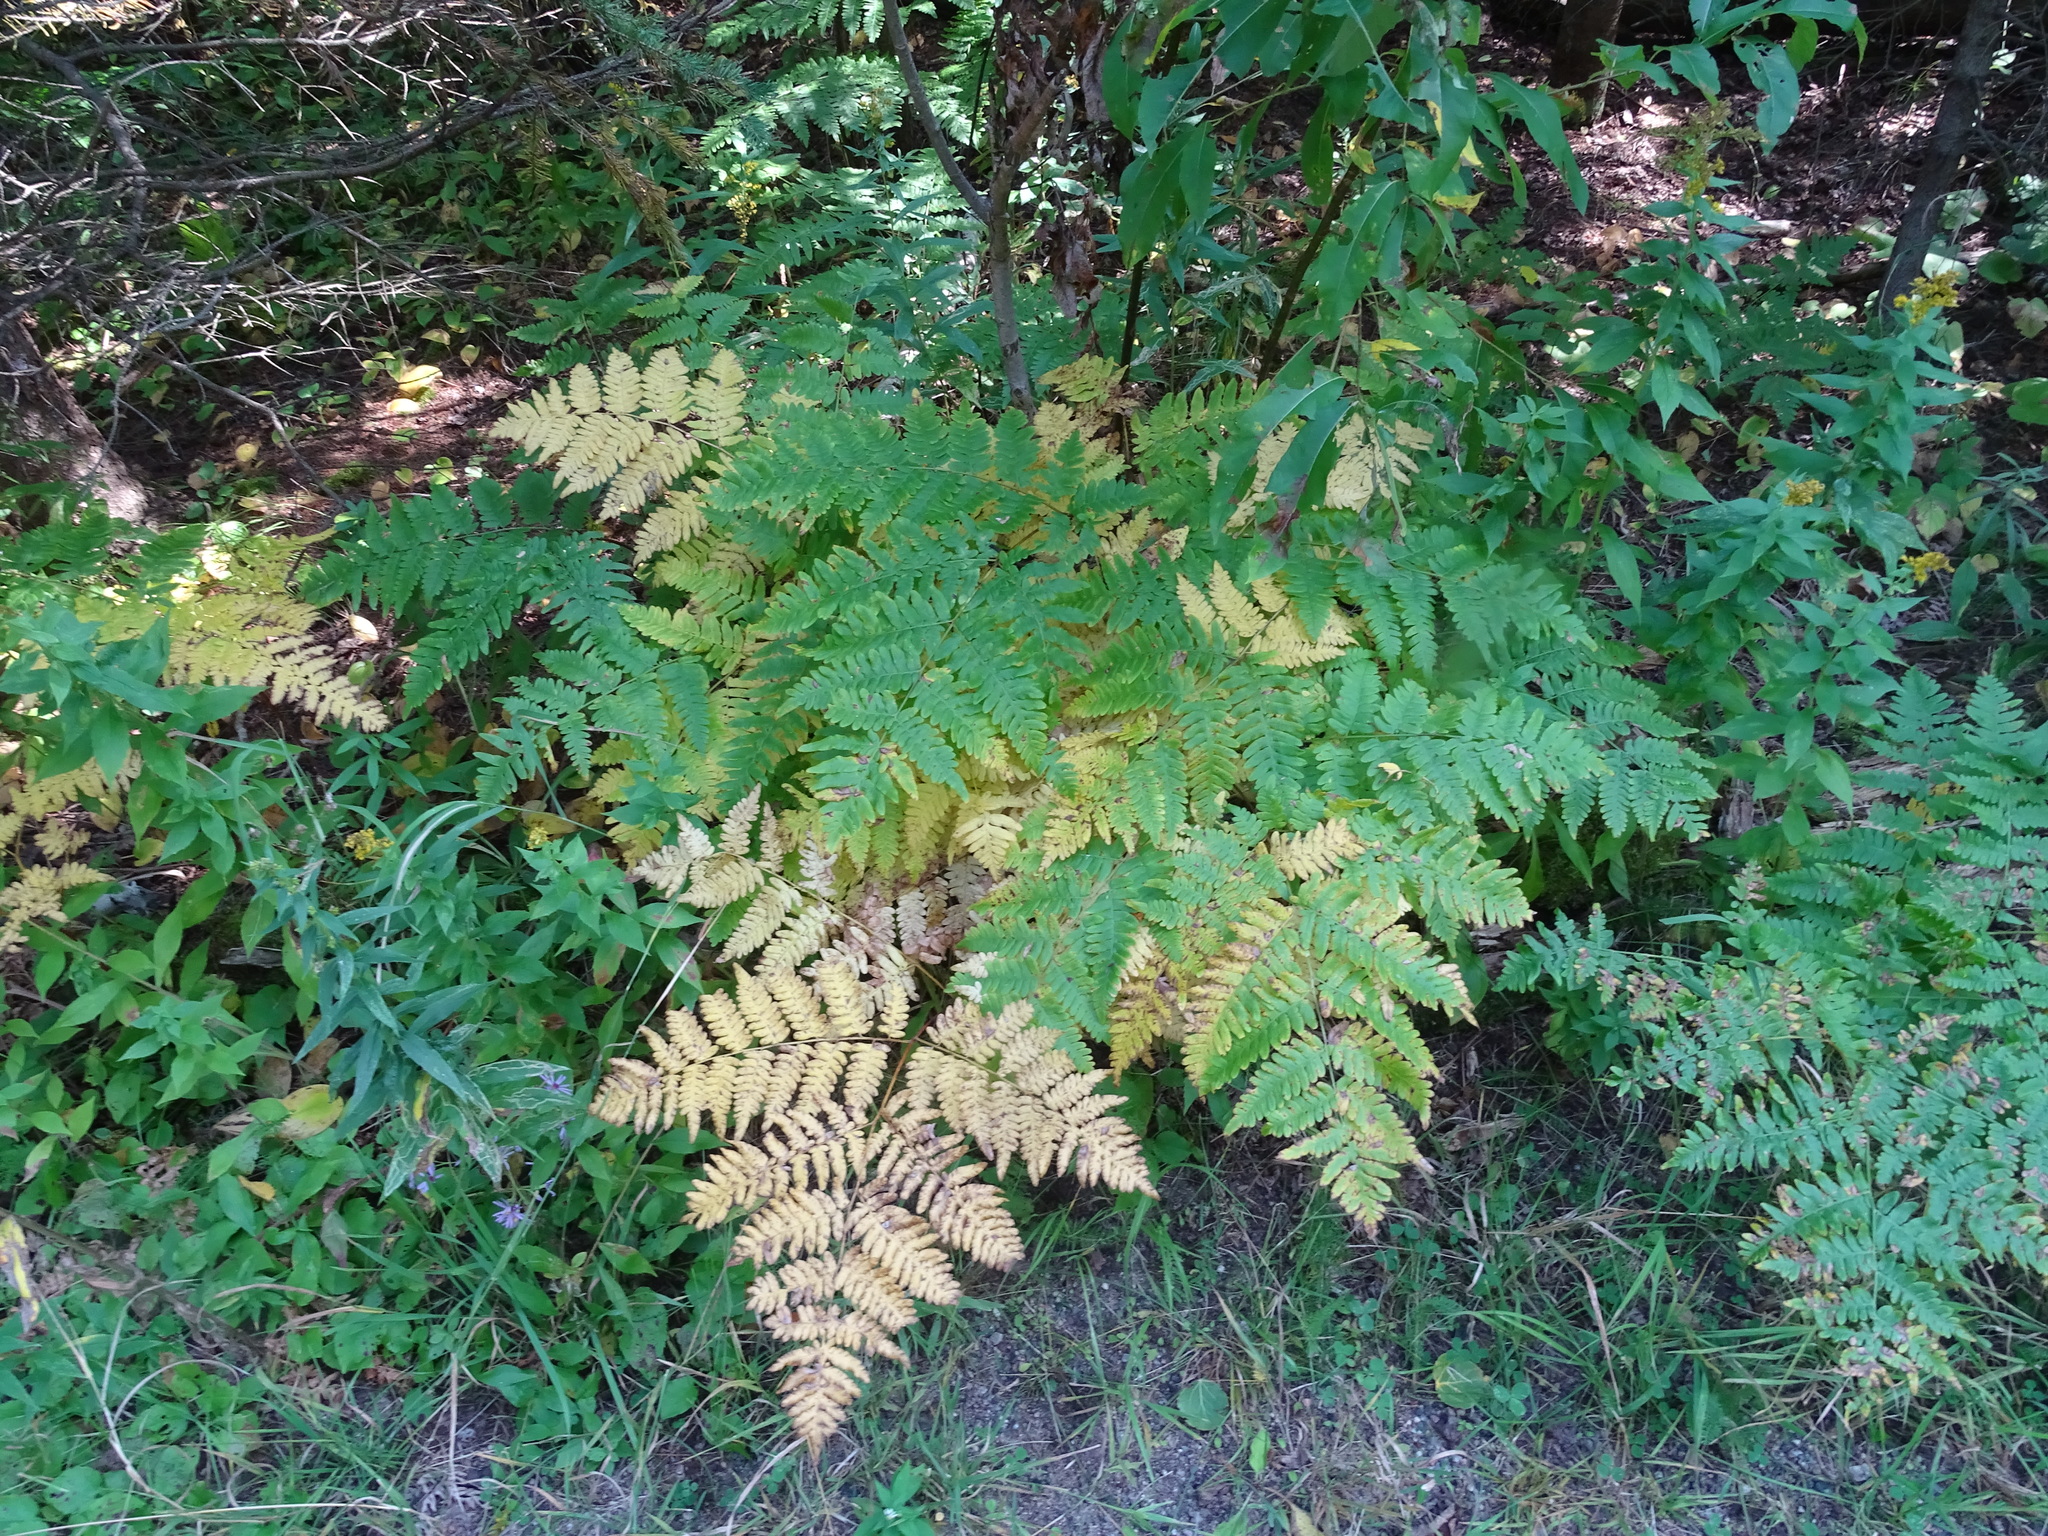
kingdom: Plantae
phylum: Tracheophyta
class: Polypodiopsida
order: Polypodiales
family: Dennstaedtiaceae
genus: Pteridium
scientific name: Pteridium aquilinum
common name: Bracken
